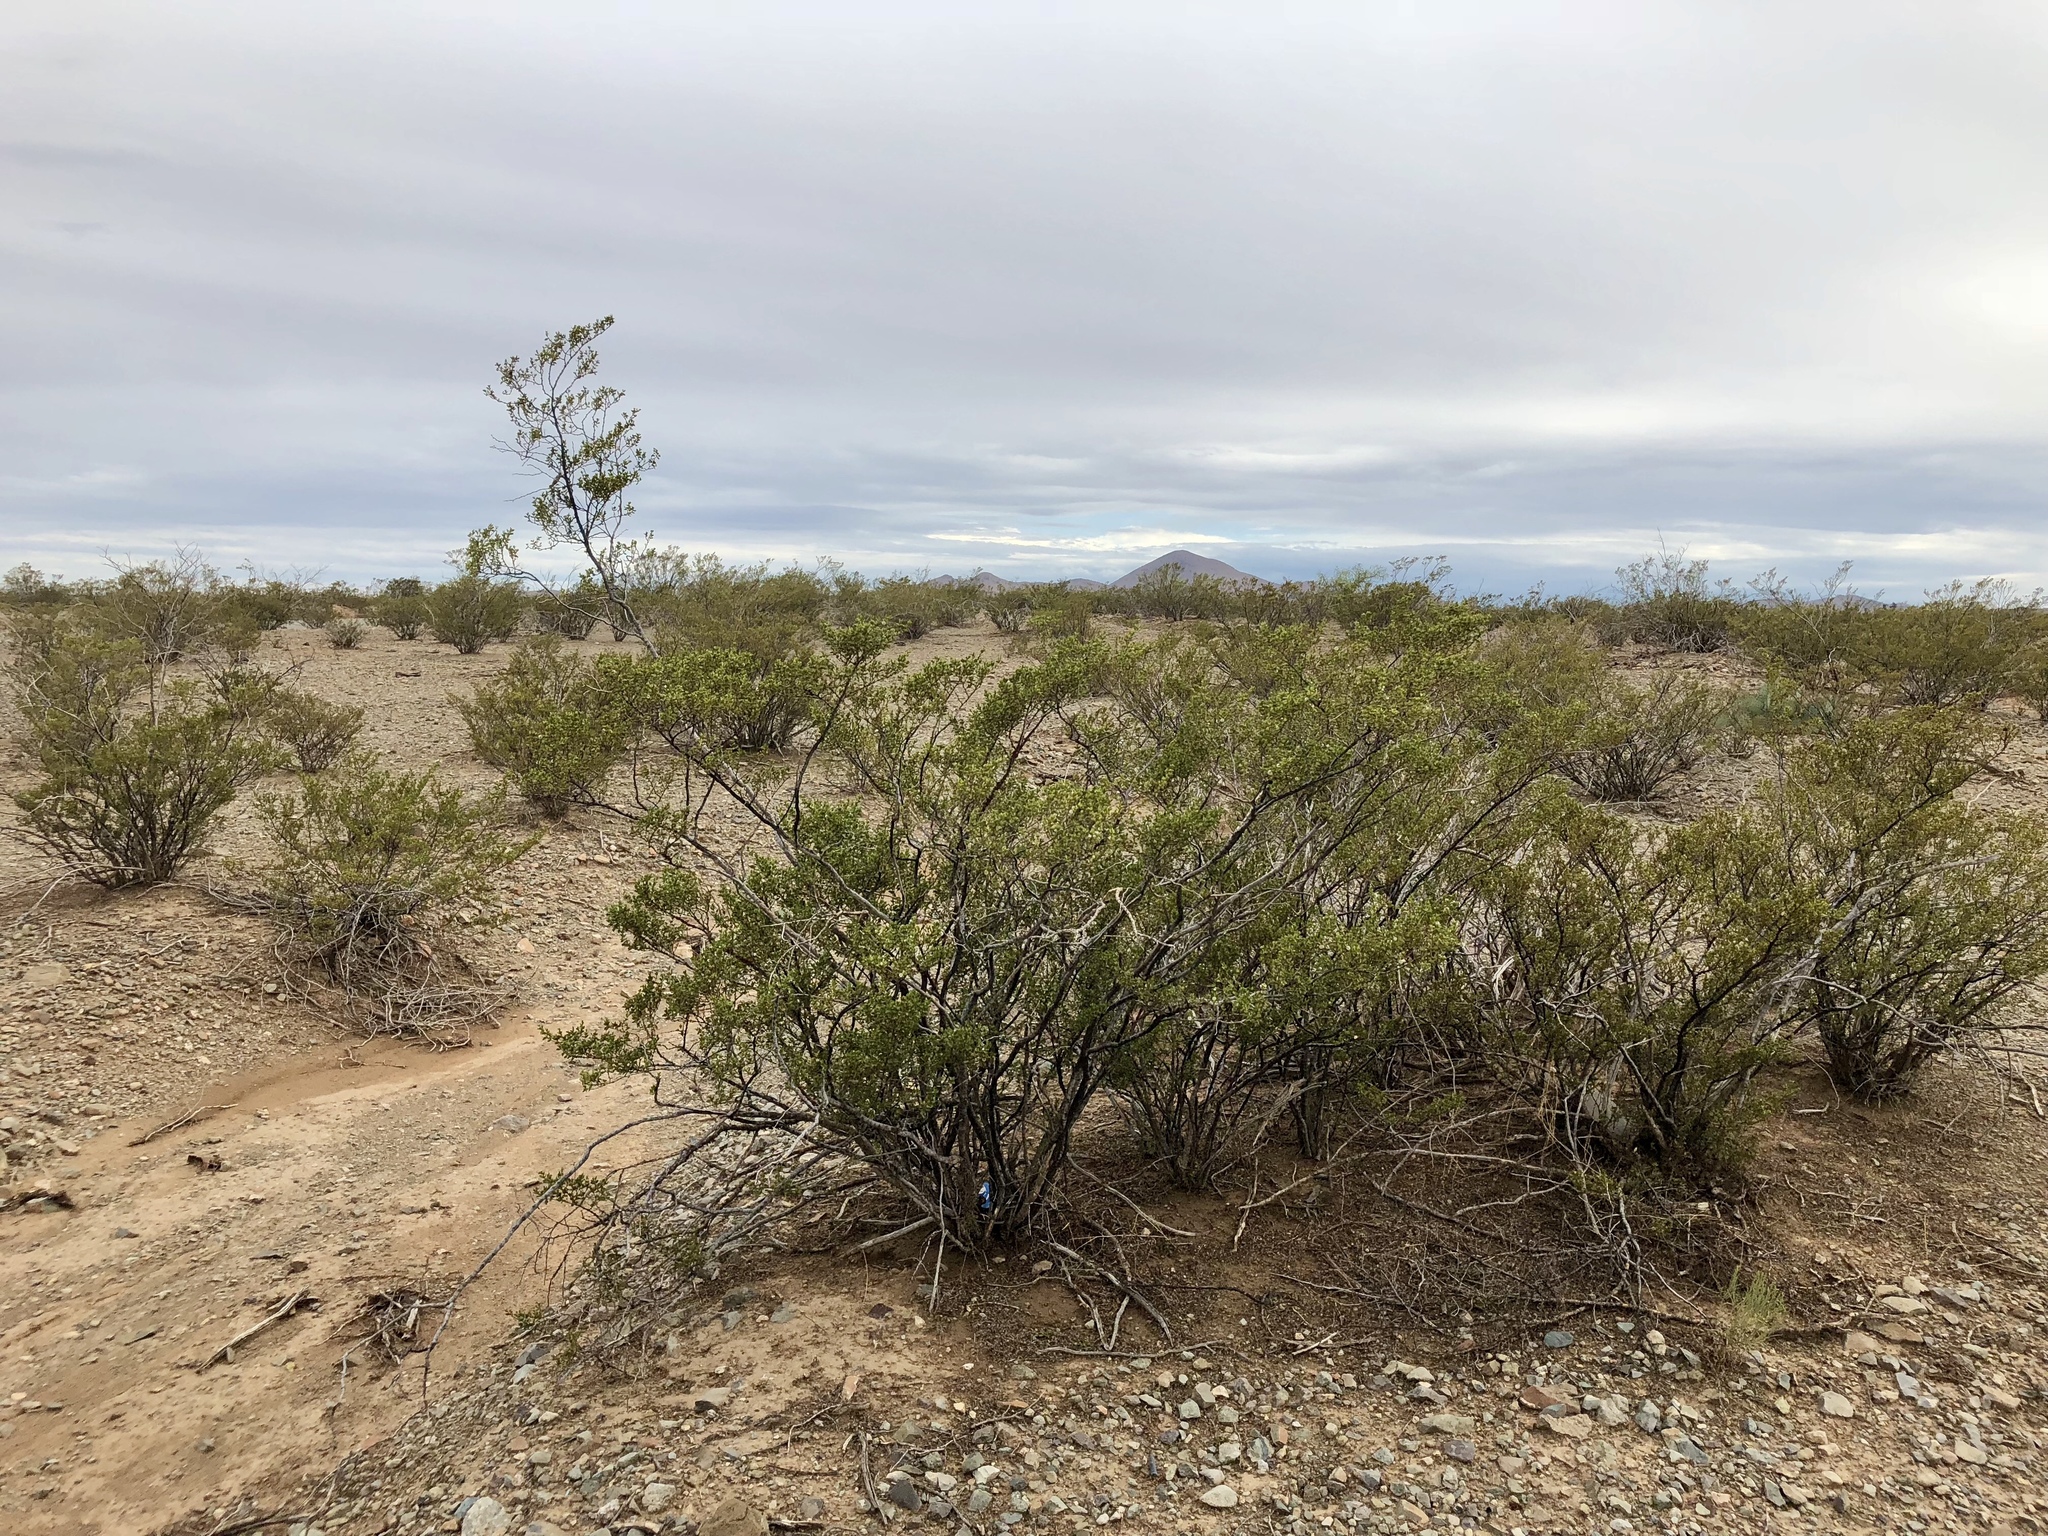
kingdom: Plantae
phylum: Tracheophyta
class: Magnoliopsida
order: Zygophyllales
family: Zygophyllaceae
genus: Larrea
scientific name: Larrea tridentata
